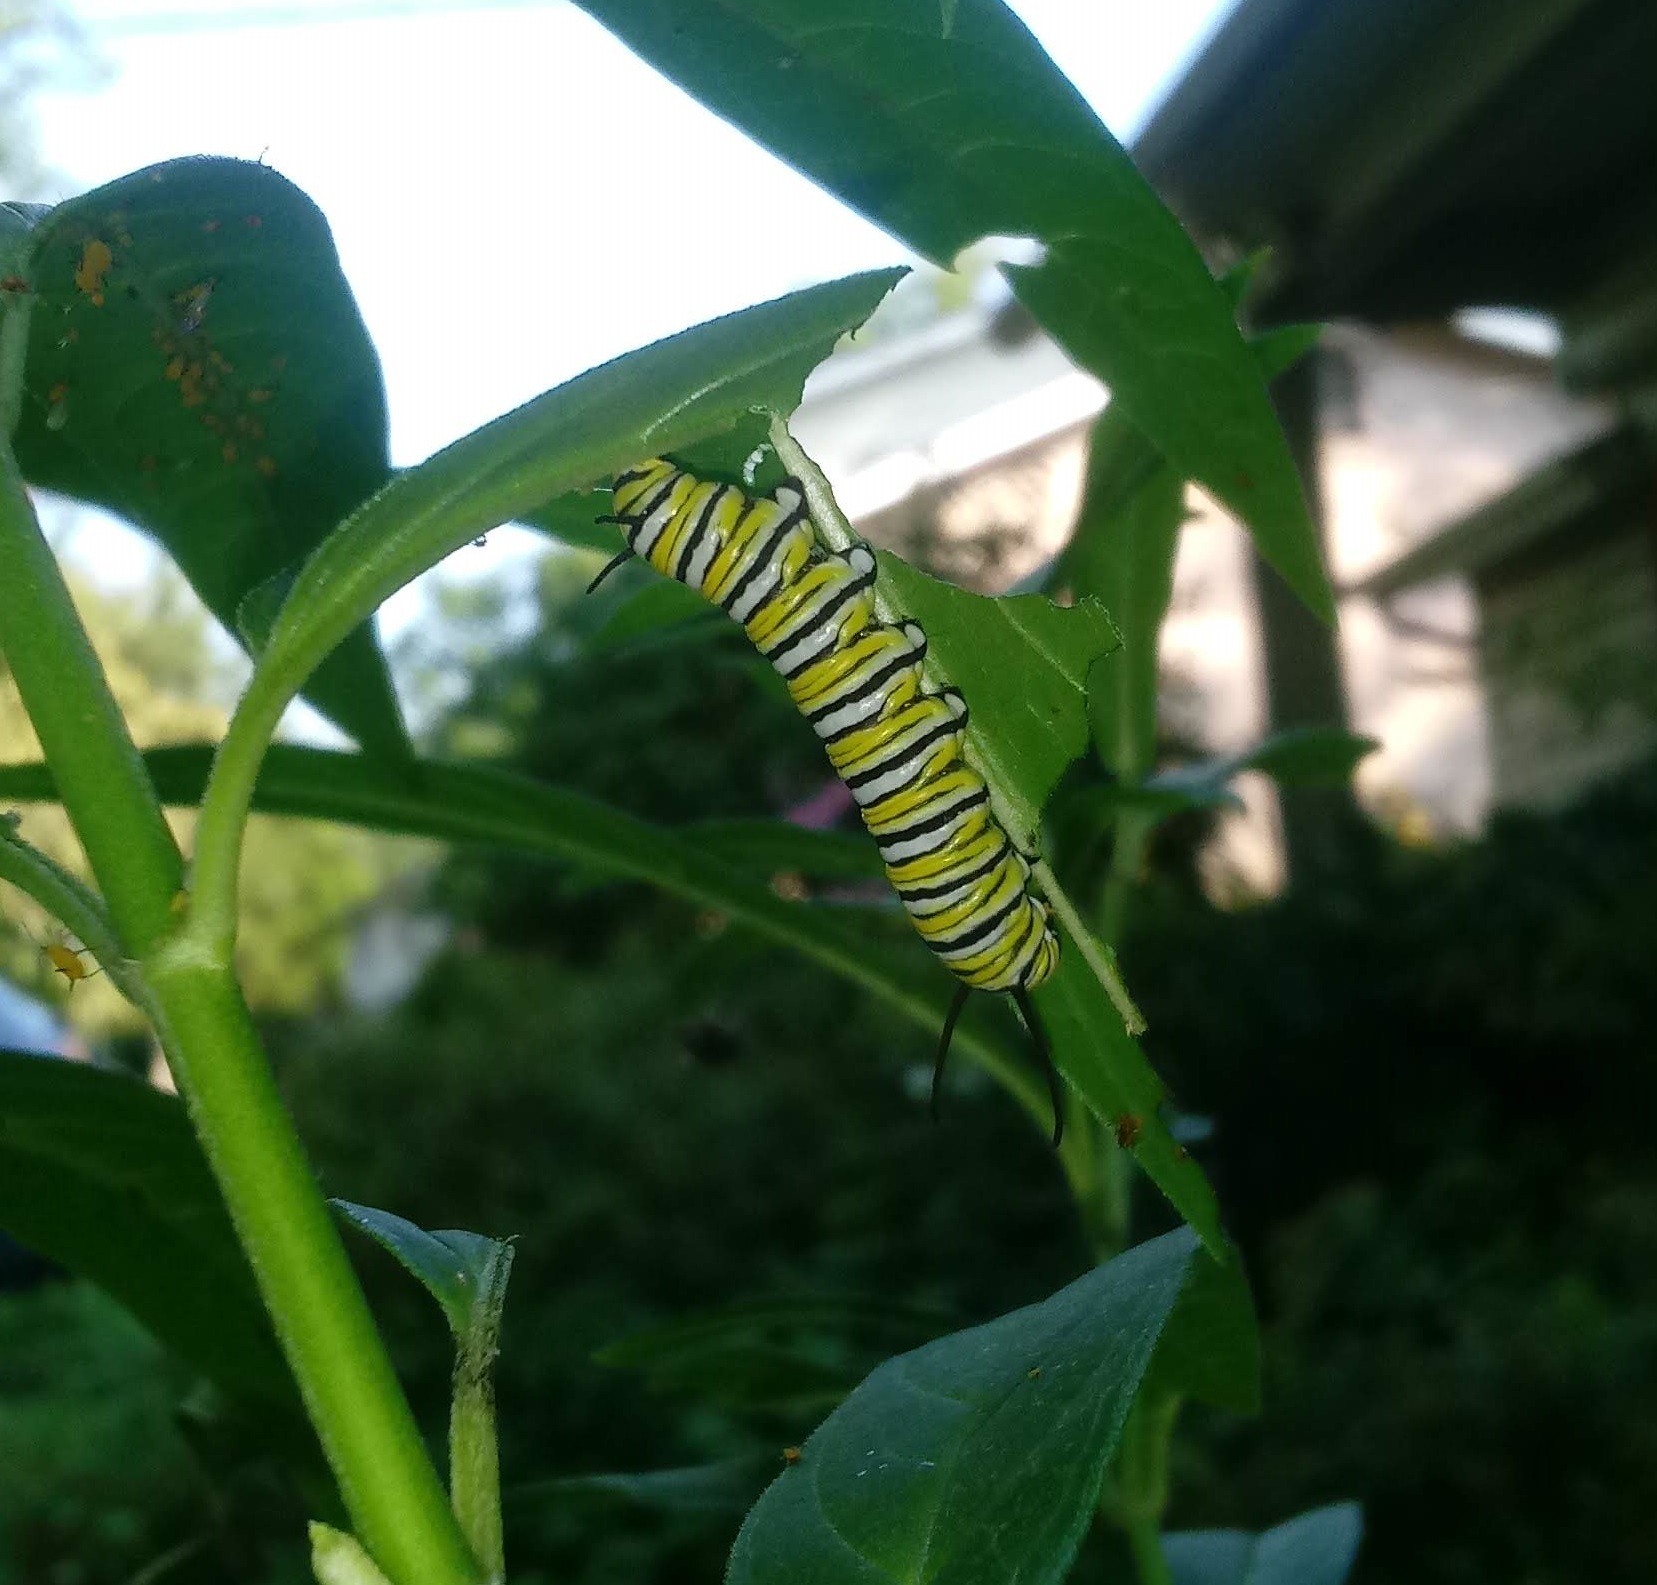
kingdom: Animalia
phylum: Arthropoda
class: Insecta
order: Lepidoptera
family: Nymphalidae
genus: Danaus
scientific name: Danaus plexippus
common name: Monarch
